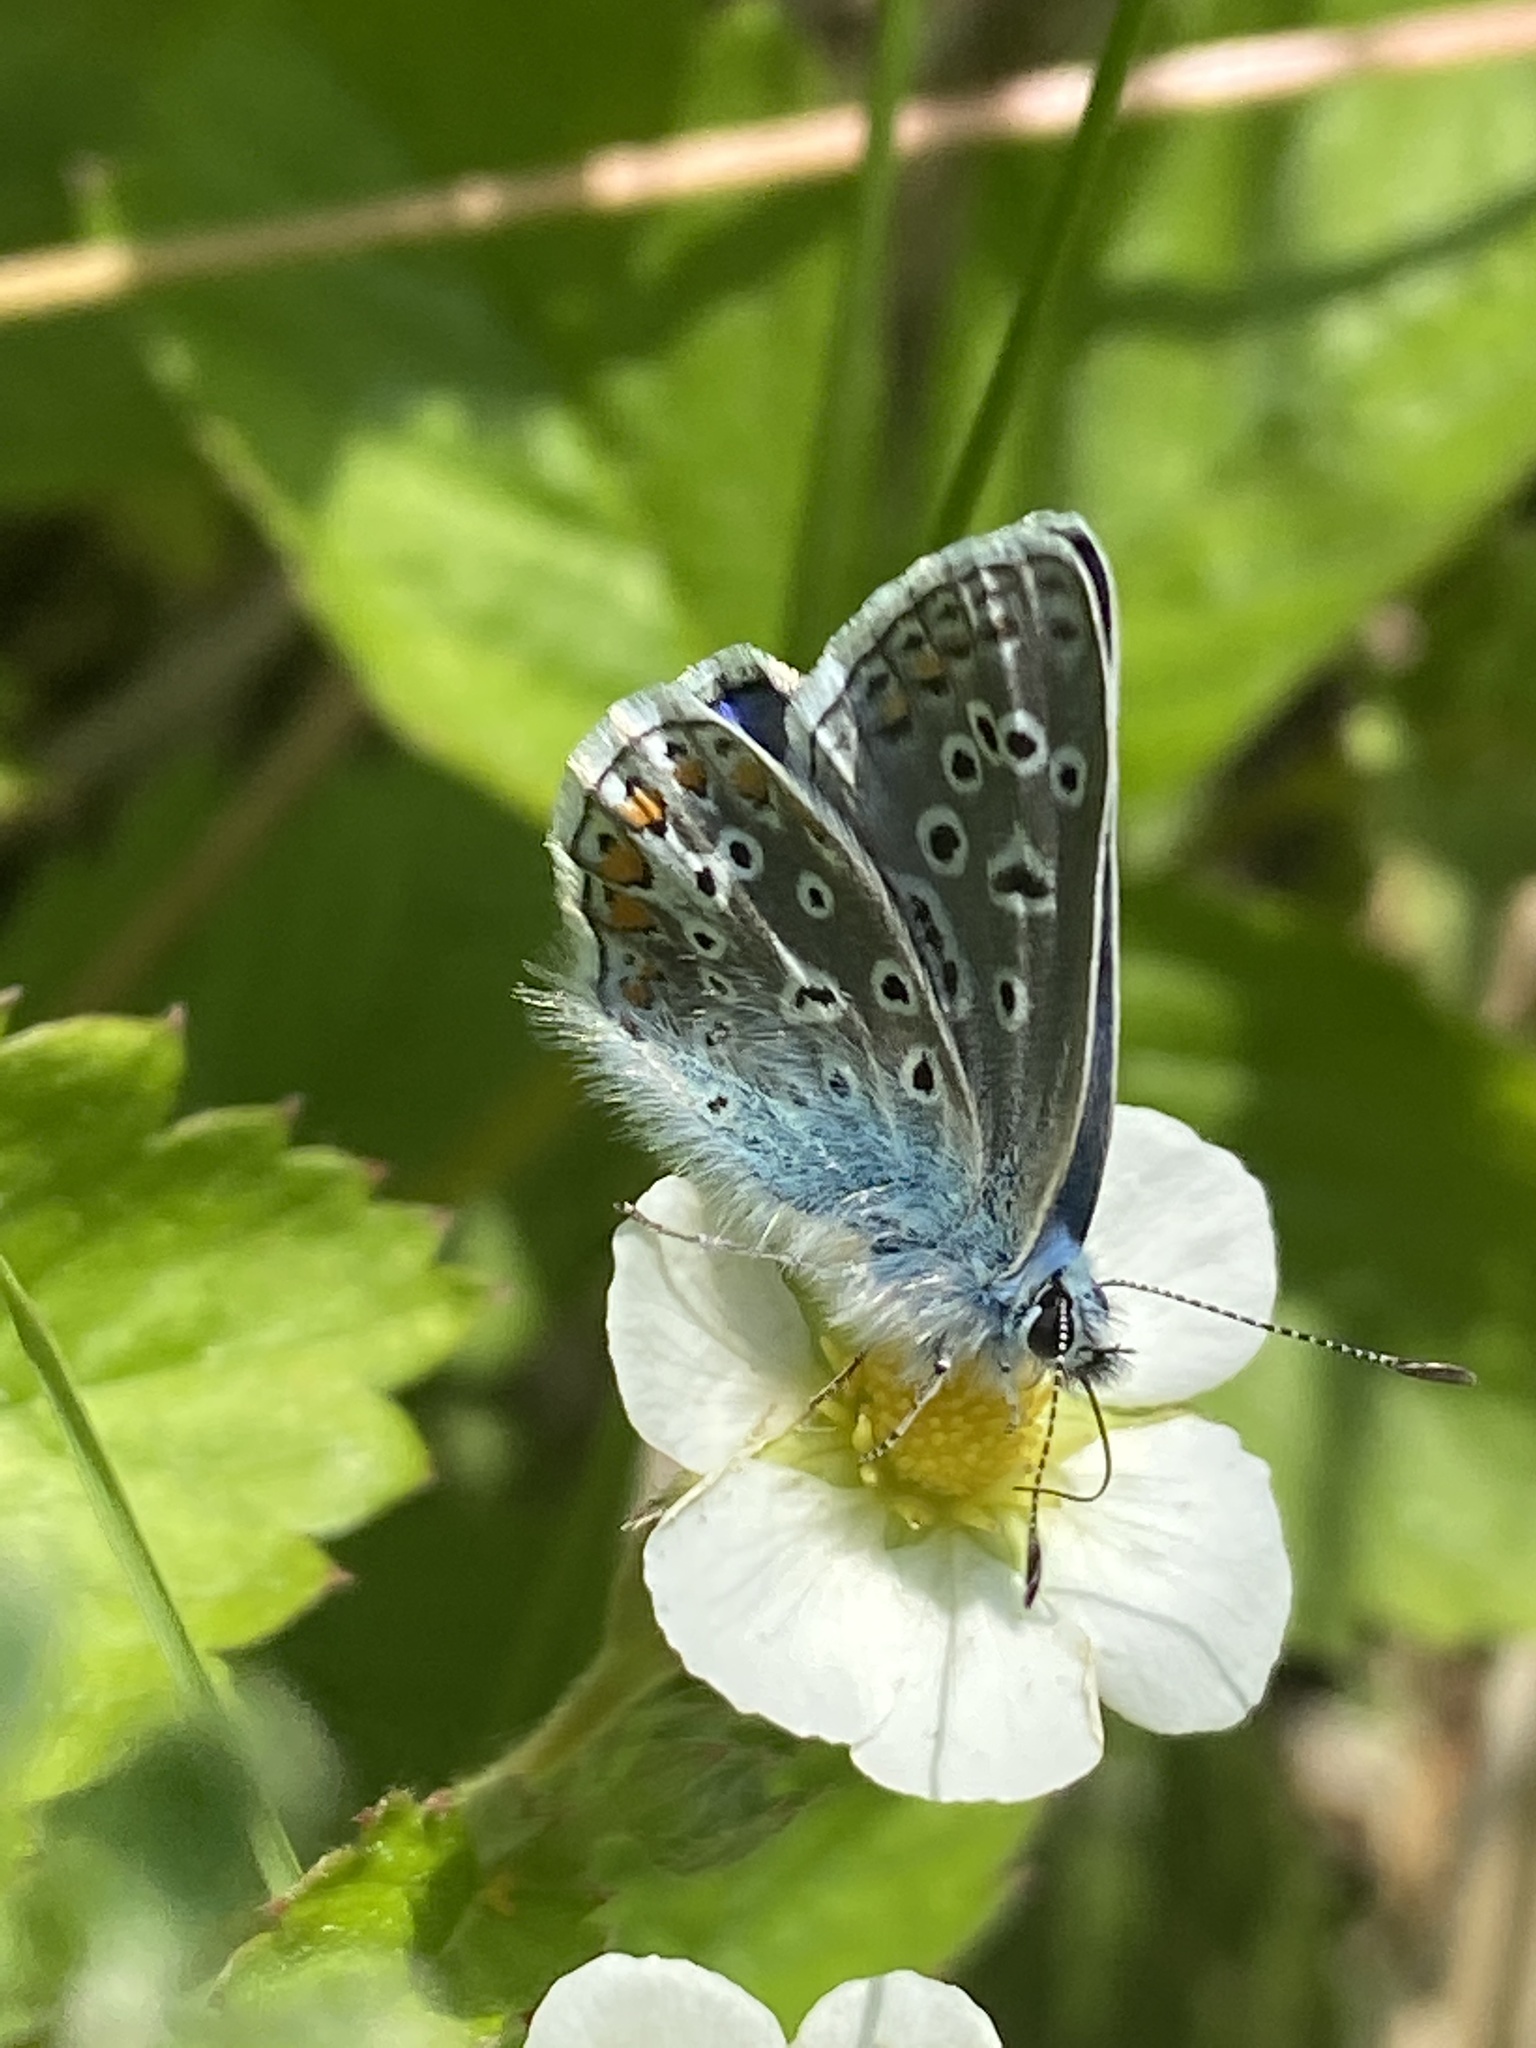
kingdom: Animalia
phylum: Arthropoda
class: Insecta
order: Lepidoptera
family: Lycaenidae
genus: Polyommatus
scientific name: Polyommatus icarus
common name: Common blue
